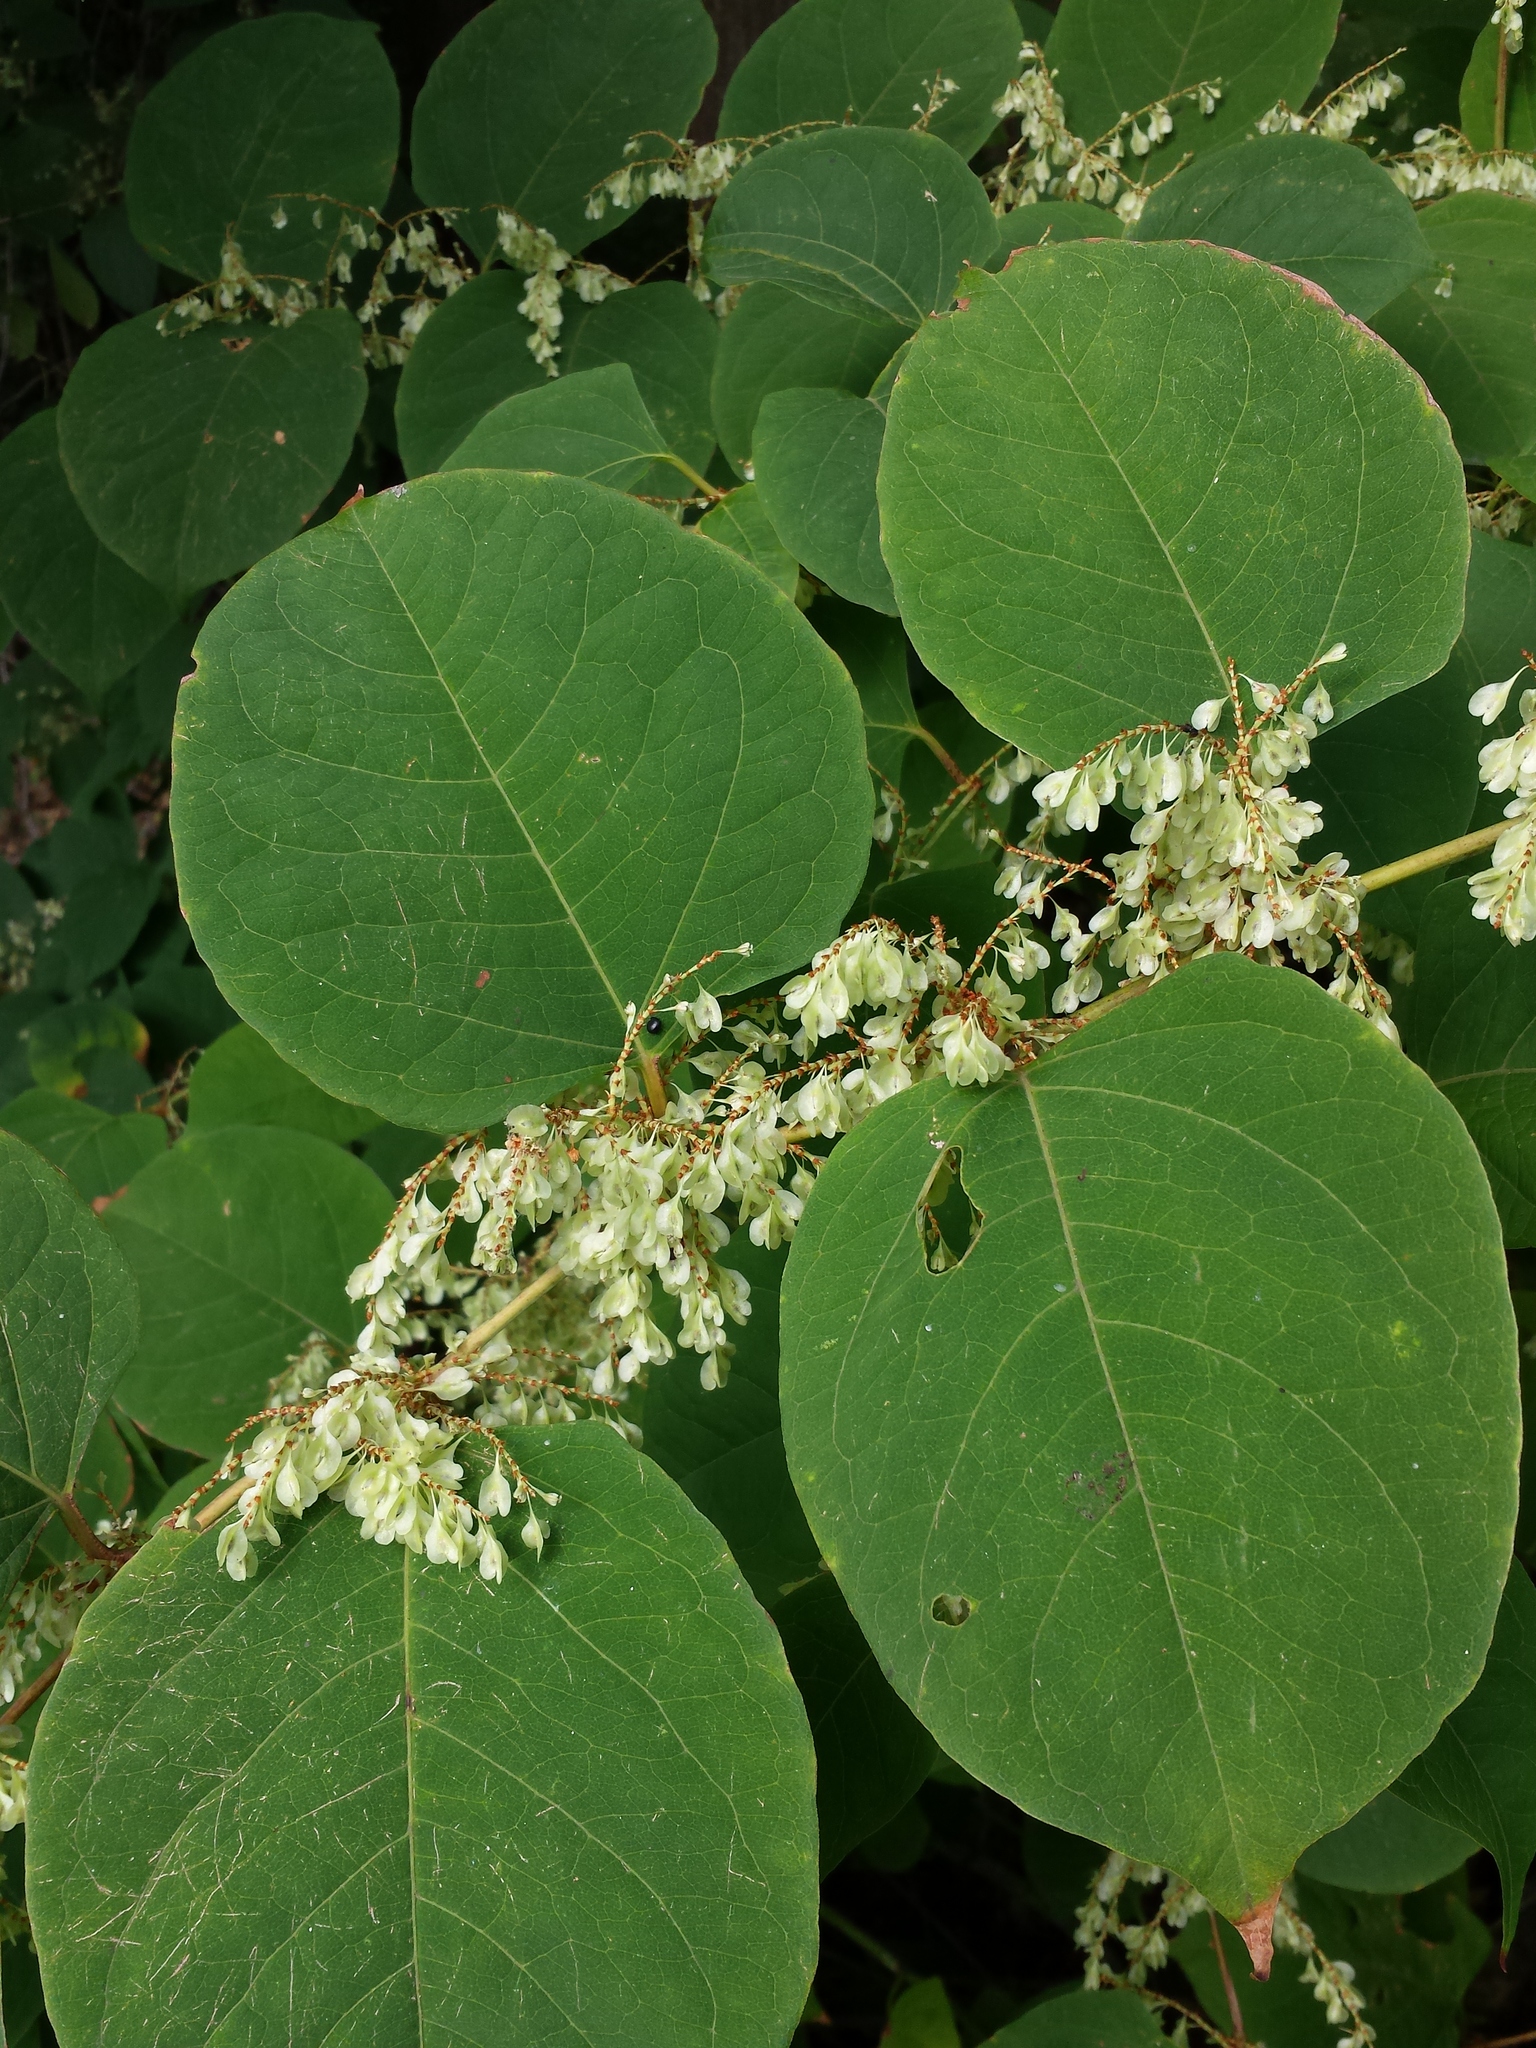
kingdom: Plantae
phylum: Tracheophyta
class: Magnoliopsida
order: Caryophyllales
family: Polygonaceae
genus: Reynoutria
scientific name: Reynoutria japonica
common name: Japanese knotweed
